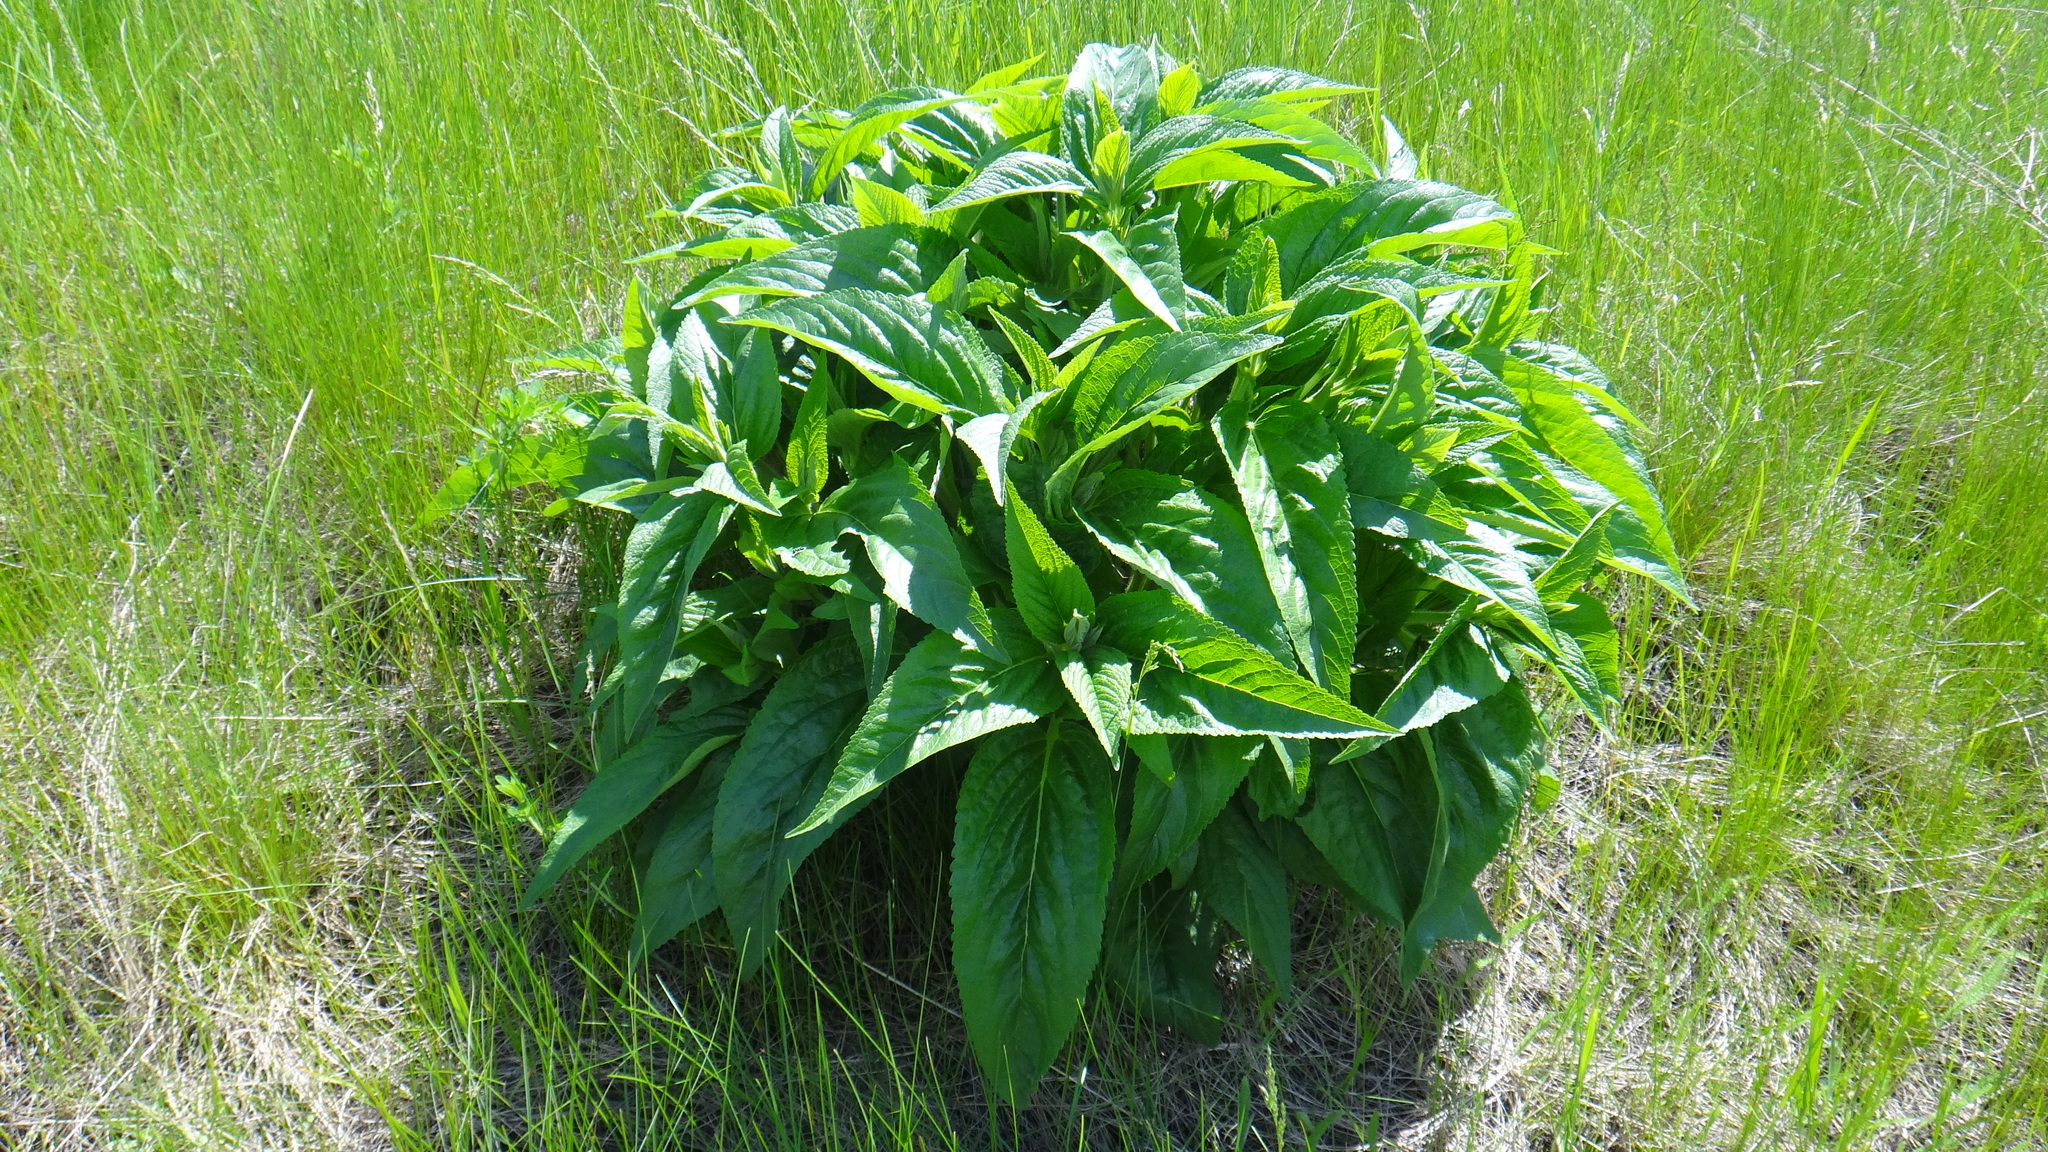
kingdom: Plantae
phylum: Tracheophyta
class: Magnoliopsida
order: Lamiales
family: Lamiaceae
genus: Phlomis
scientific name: Phlomis herba-venti
